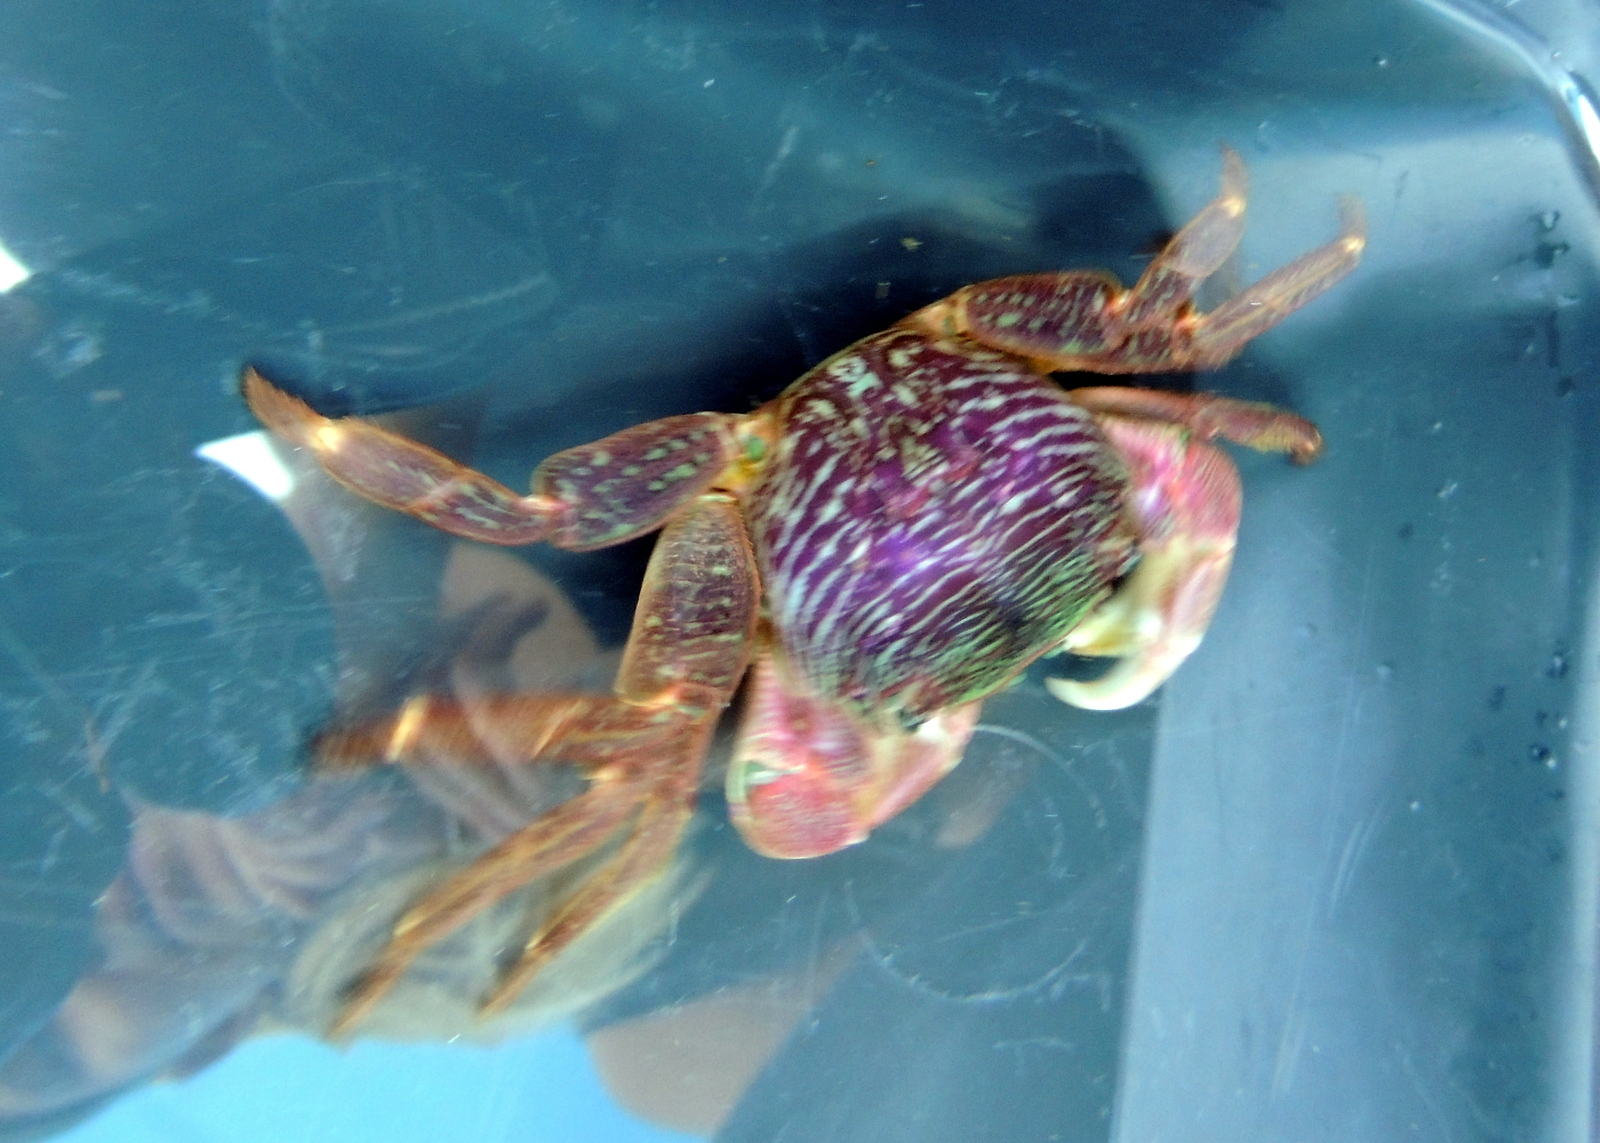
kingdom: Animalia
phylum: Arthropoda
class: Malacostraca
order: Decapoda
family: Grapsidae
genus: Pachygrapsus
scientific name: Pachygrapsus crassipes
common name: Striped shore crab
